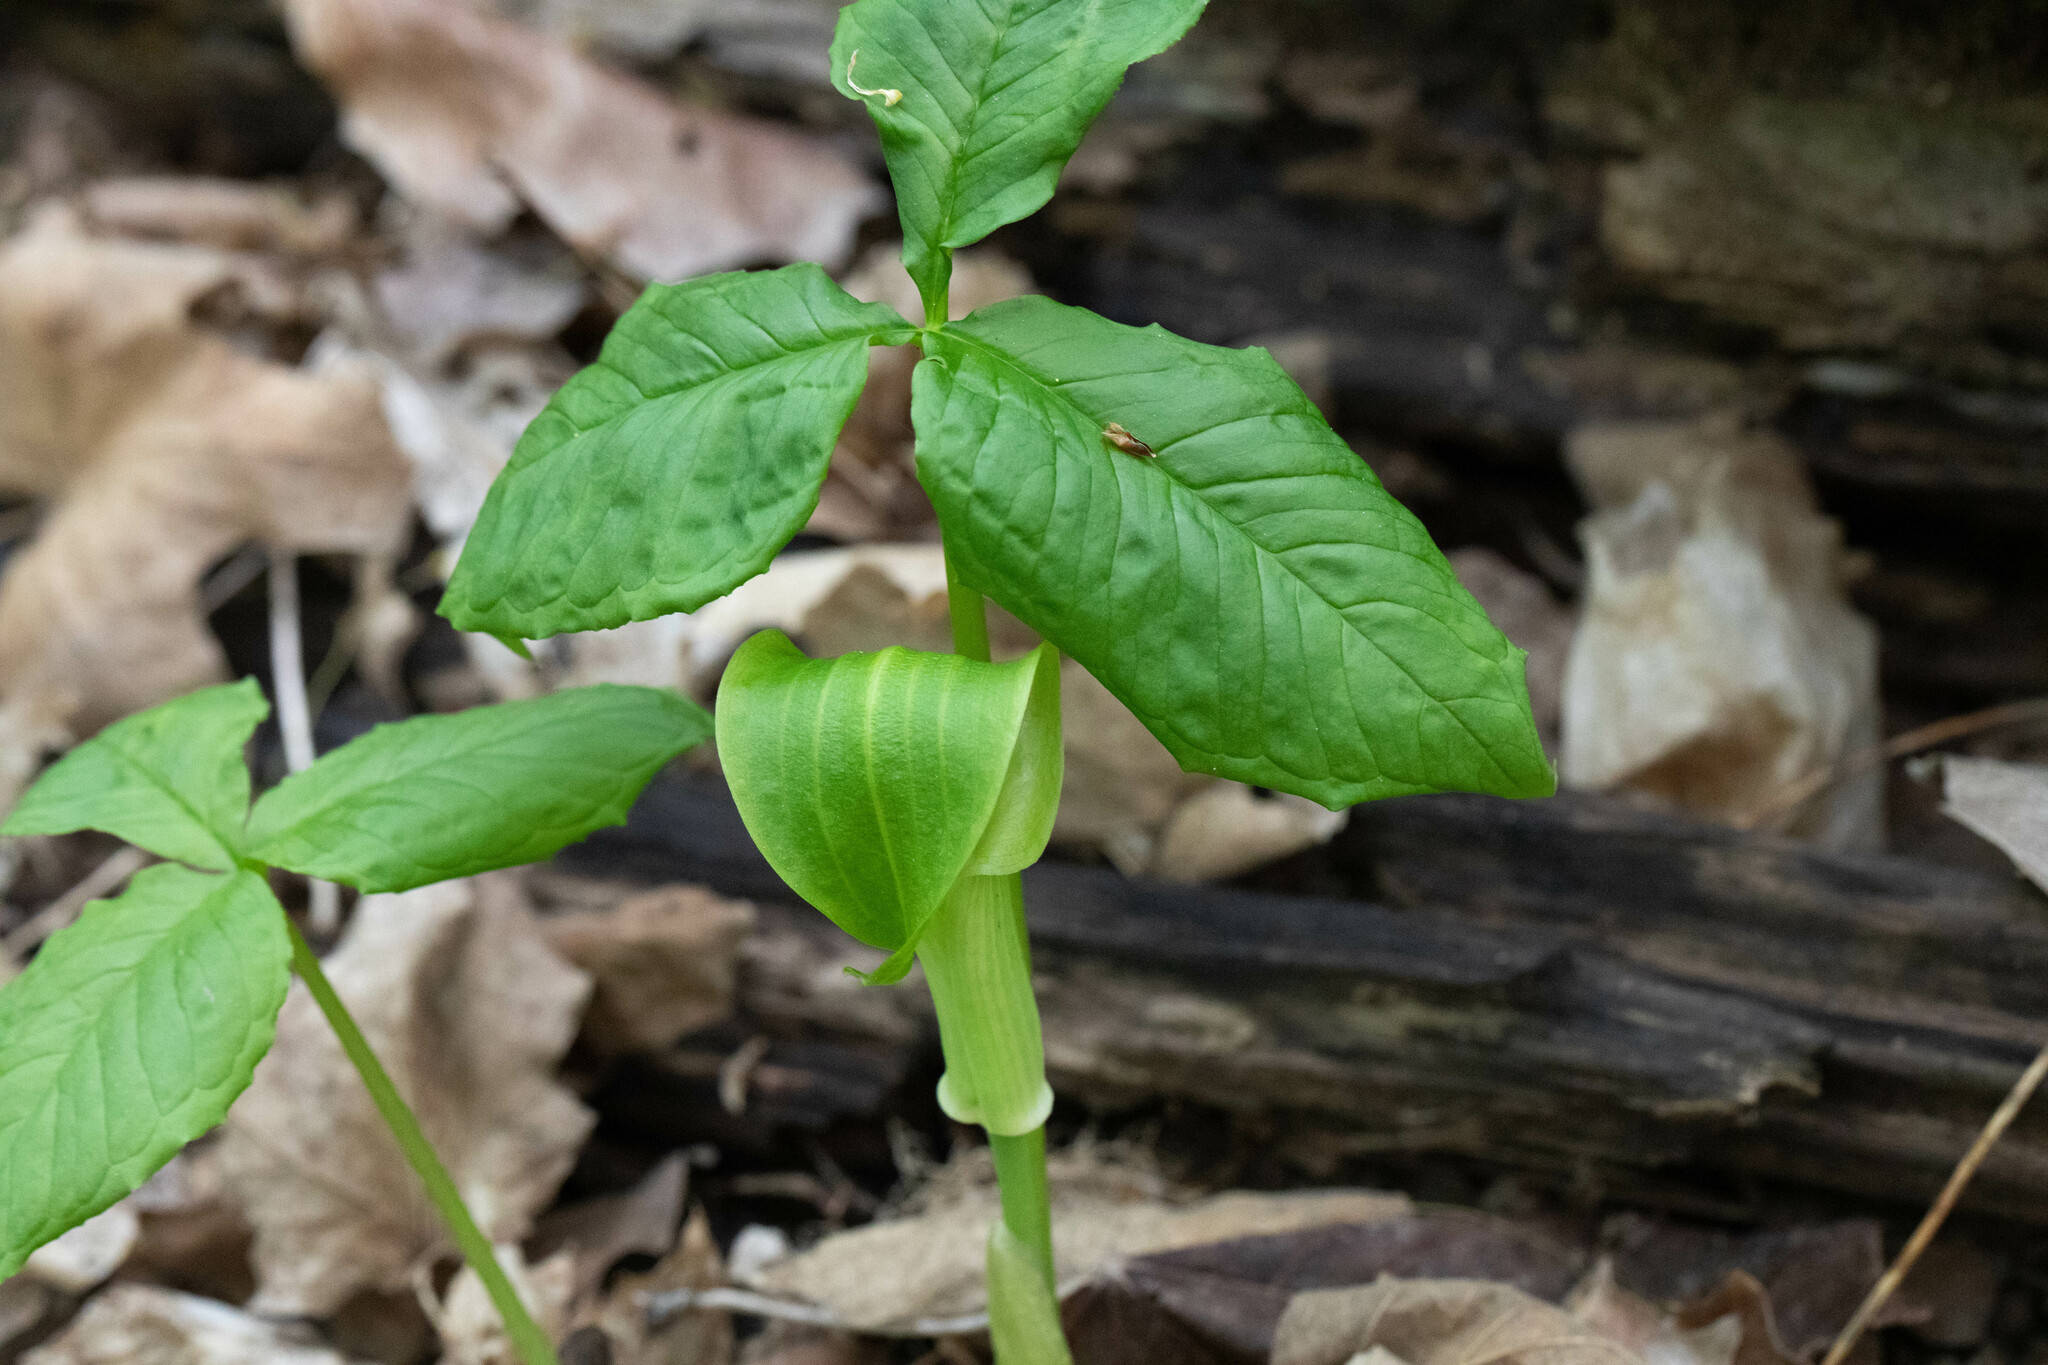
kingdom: Plantae
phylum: Tracheophyta
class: Liliopsida
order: Alismatales
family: Araceae
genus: Arisaema
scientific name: Arisaema triphyllum
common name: Jack-in-the-pulpit
